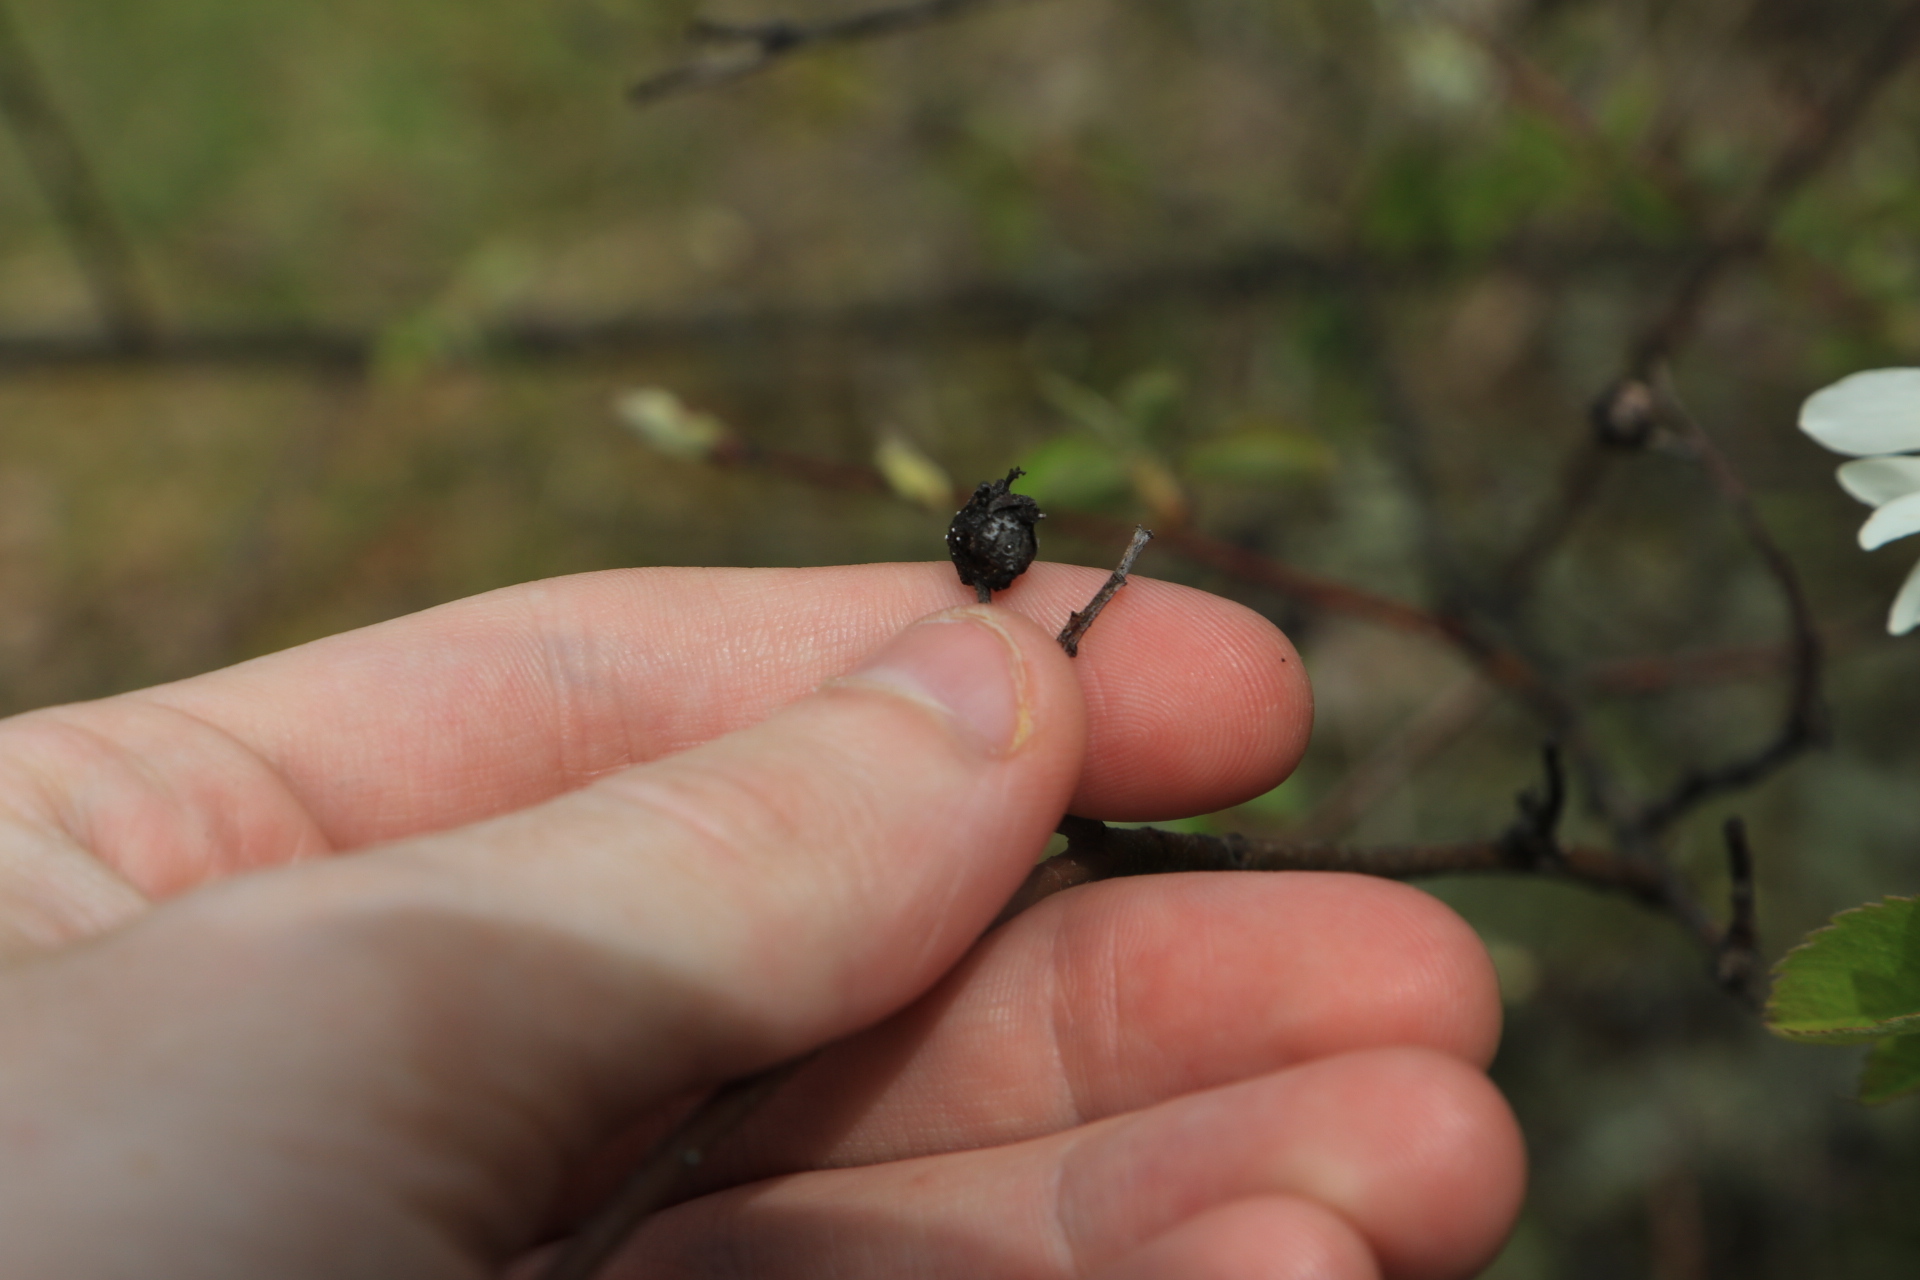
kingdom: Plantae
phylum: Tracheophyta
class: Magnoliopsida
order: Rosales
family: Rosaceae
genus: Amelanchier
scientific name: Amelanchier alnifolia
